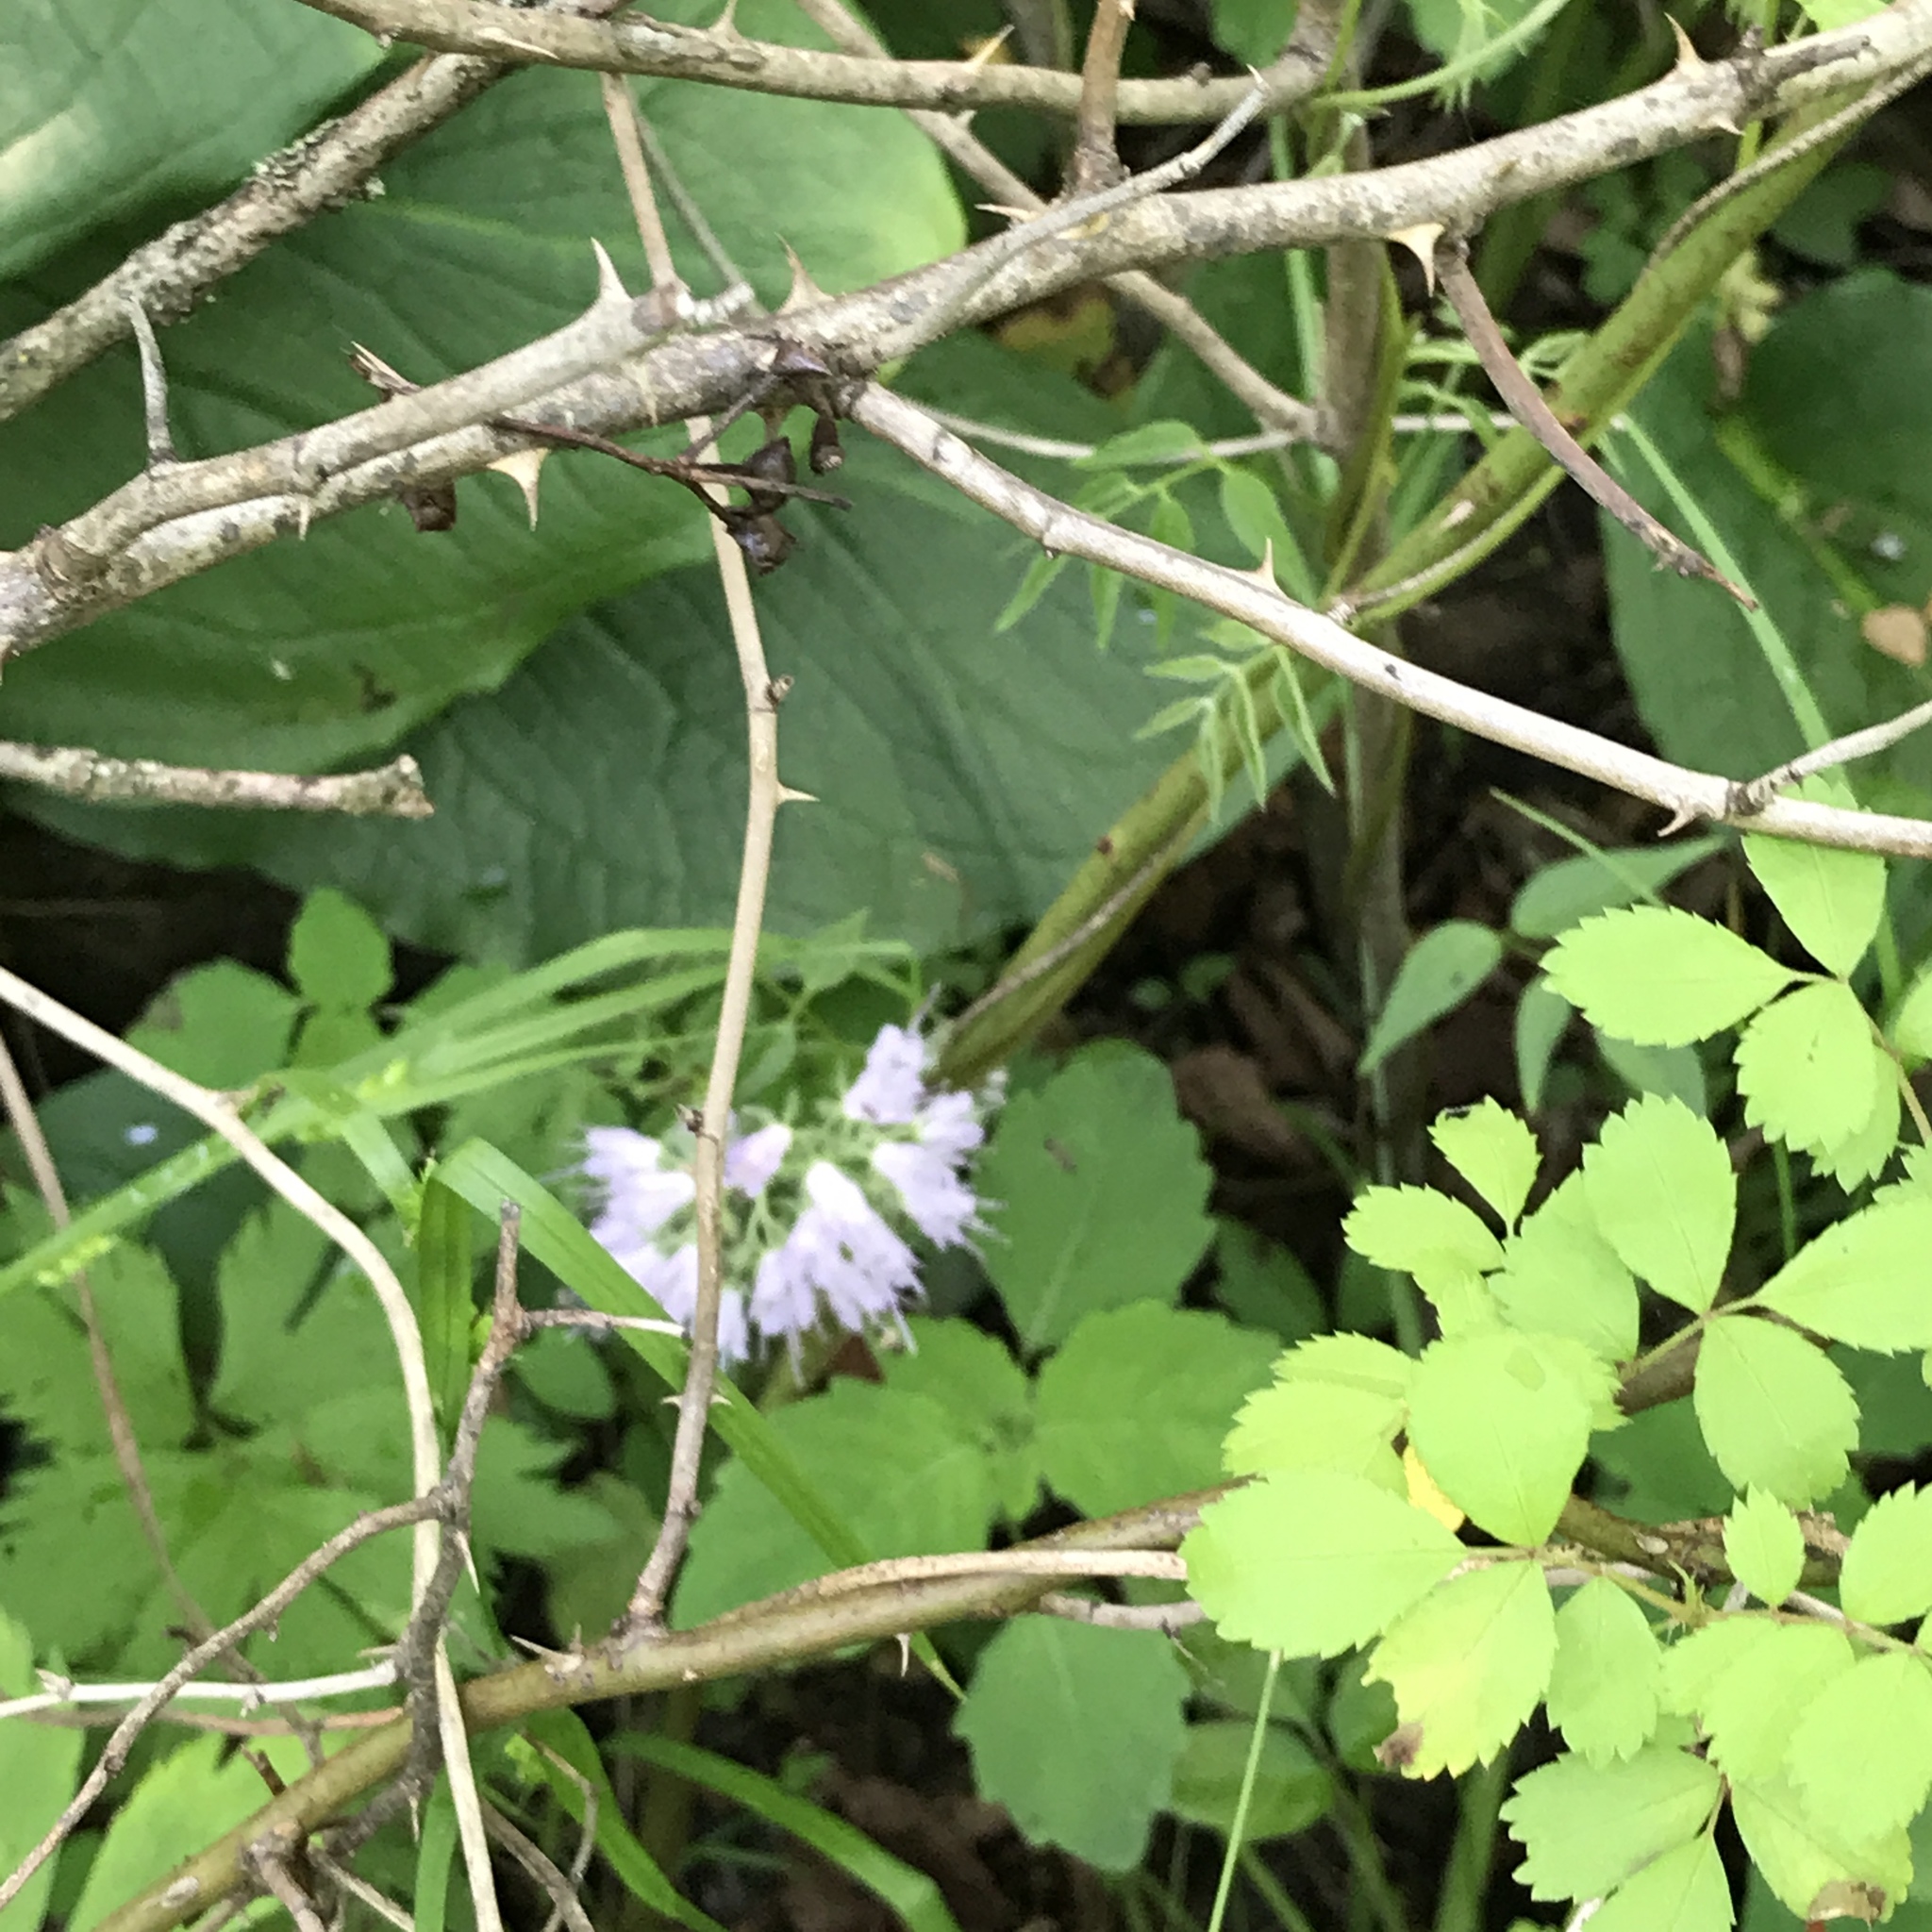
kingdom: Plantae
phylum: Tracheophyta
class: Magnoliopsida
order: Boraginales
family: Hydrophyllaceae
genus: Hydrophyllum
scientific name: Hydrophyllum virginianum
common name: Virginia waterleaf
